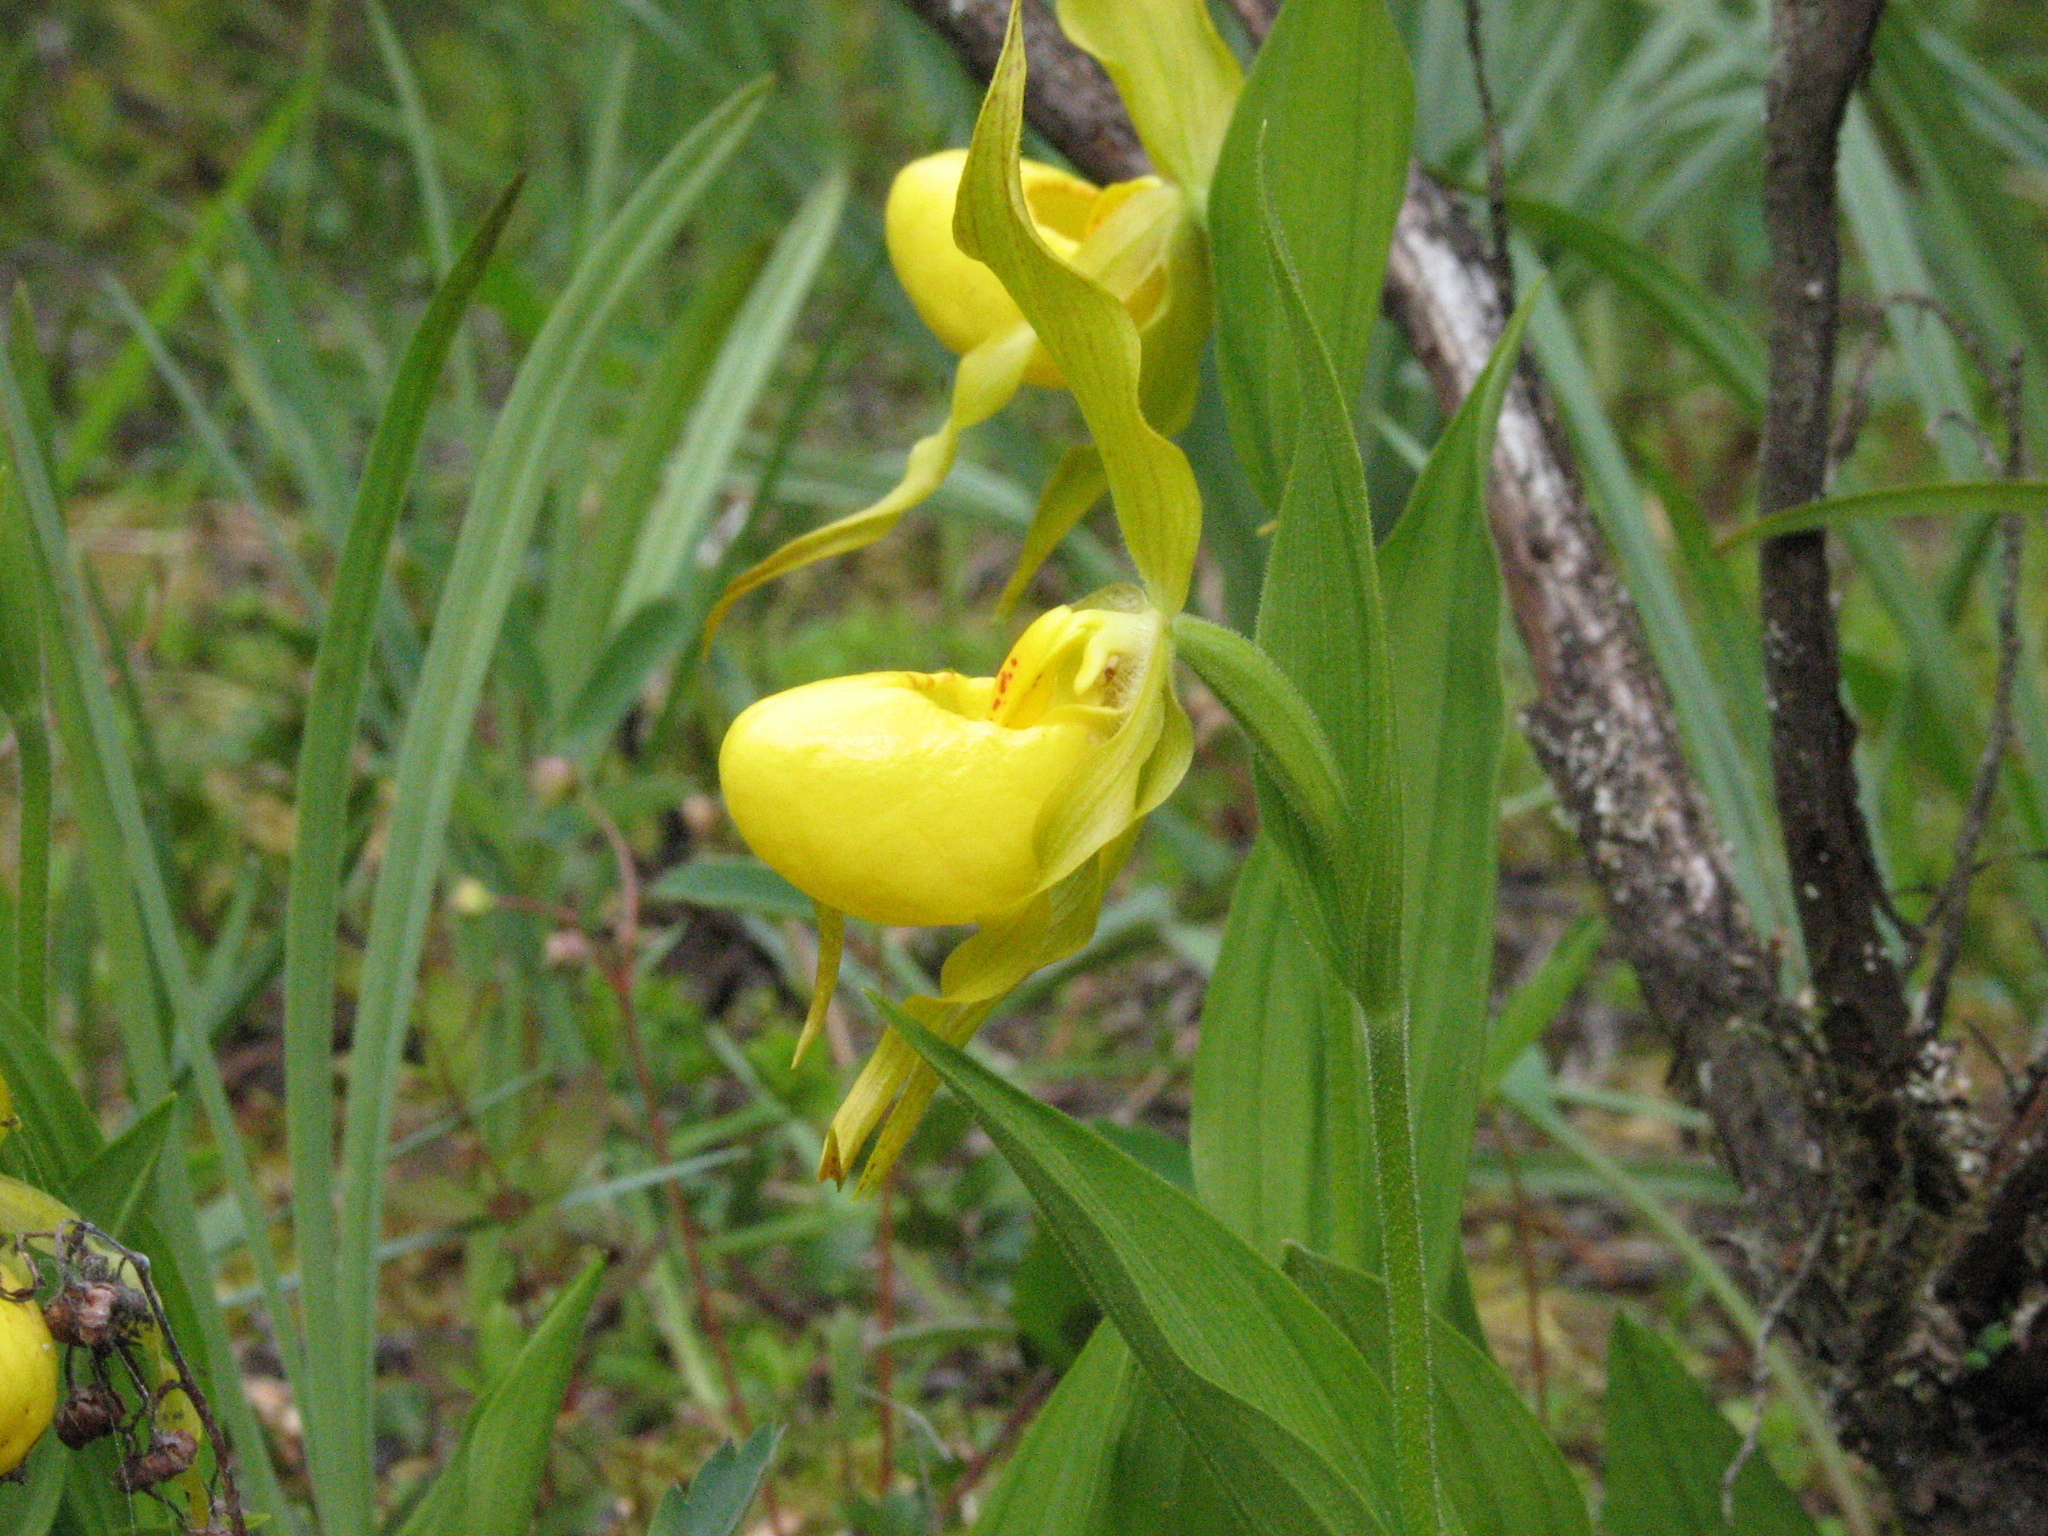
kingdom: Plantae
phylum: Tracheophyta
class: Liliopsida
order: Asparagales
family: Orchidaceae
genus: Cypripedium
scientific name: Cypripedium parviflorum
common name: American yellow lady's-slipper
